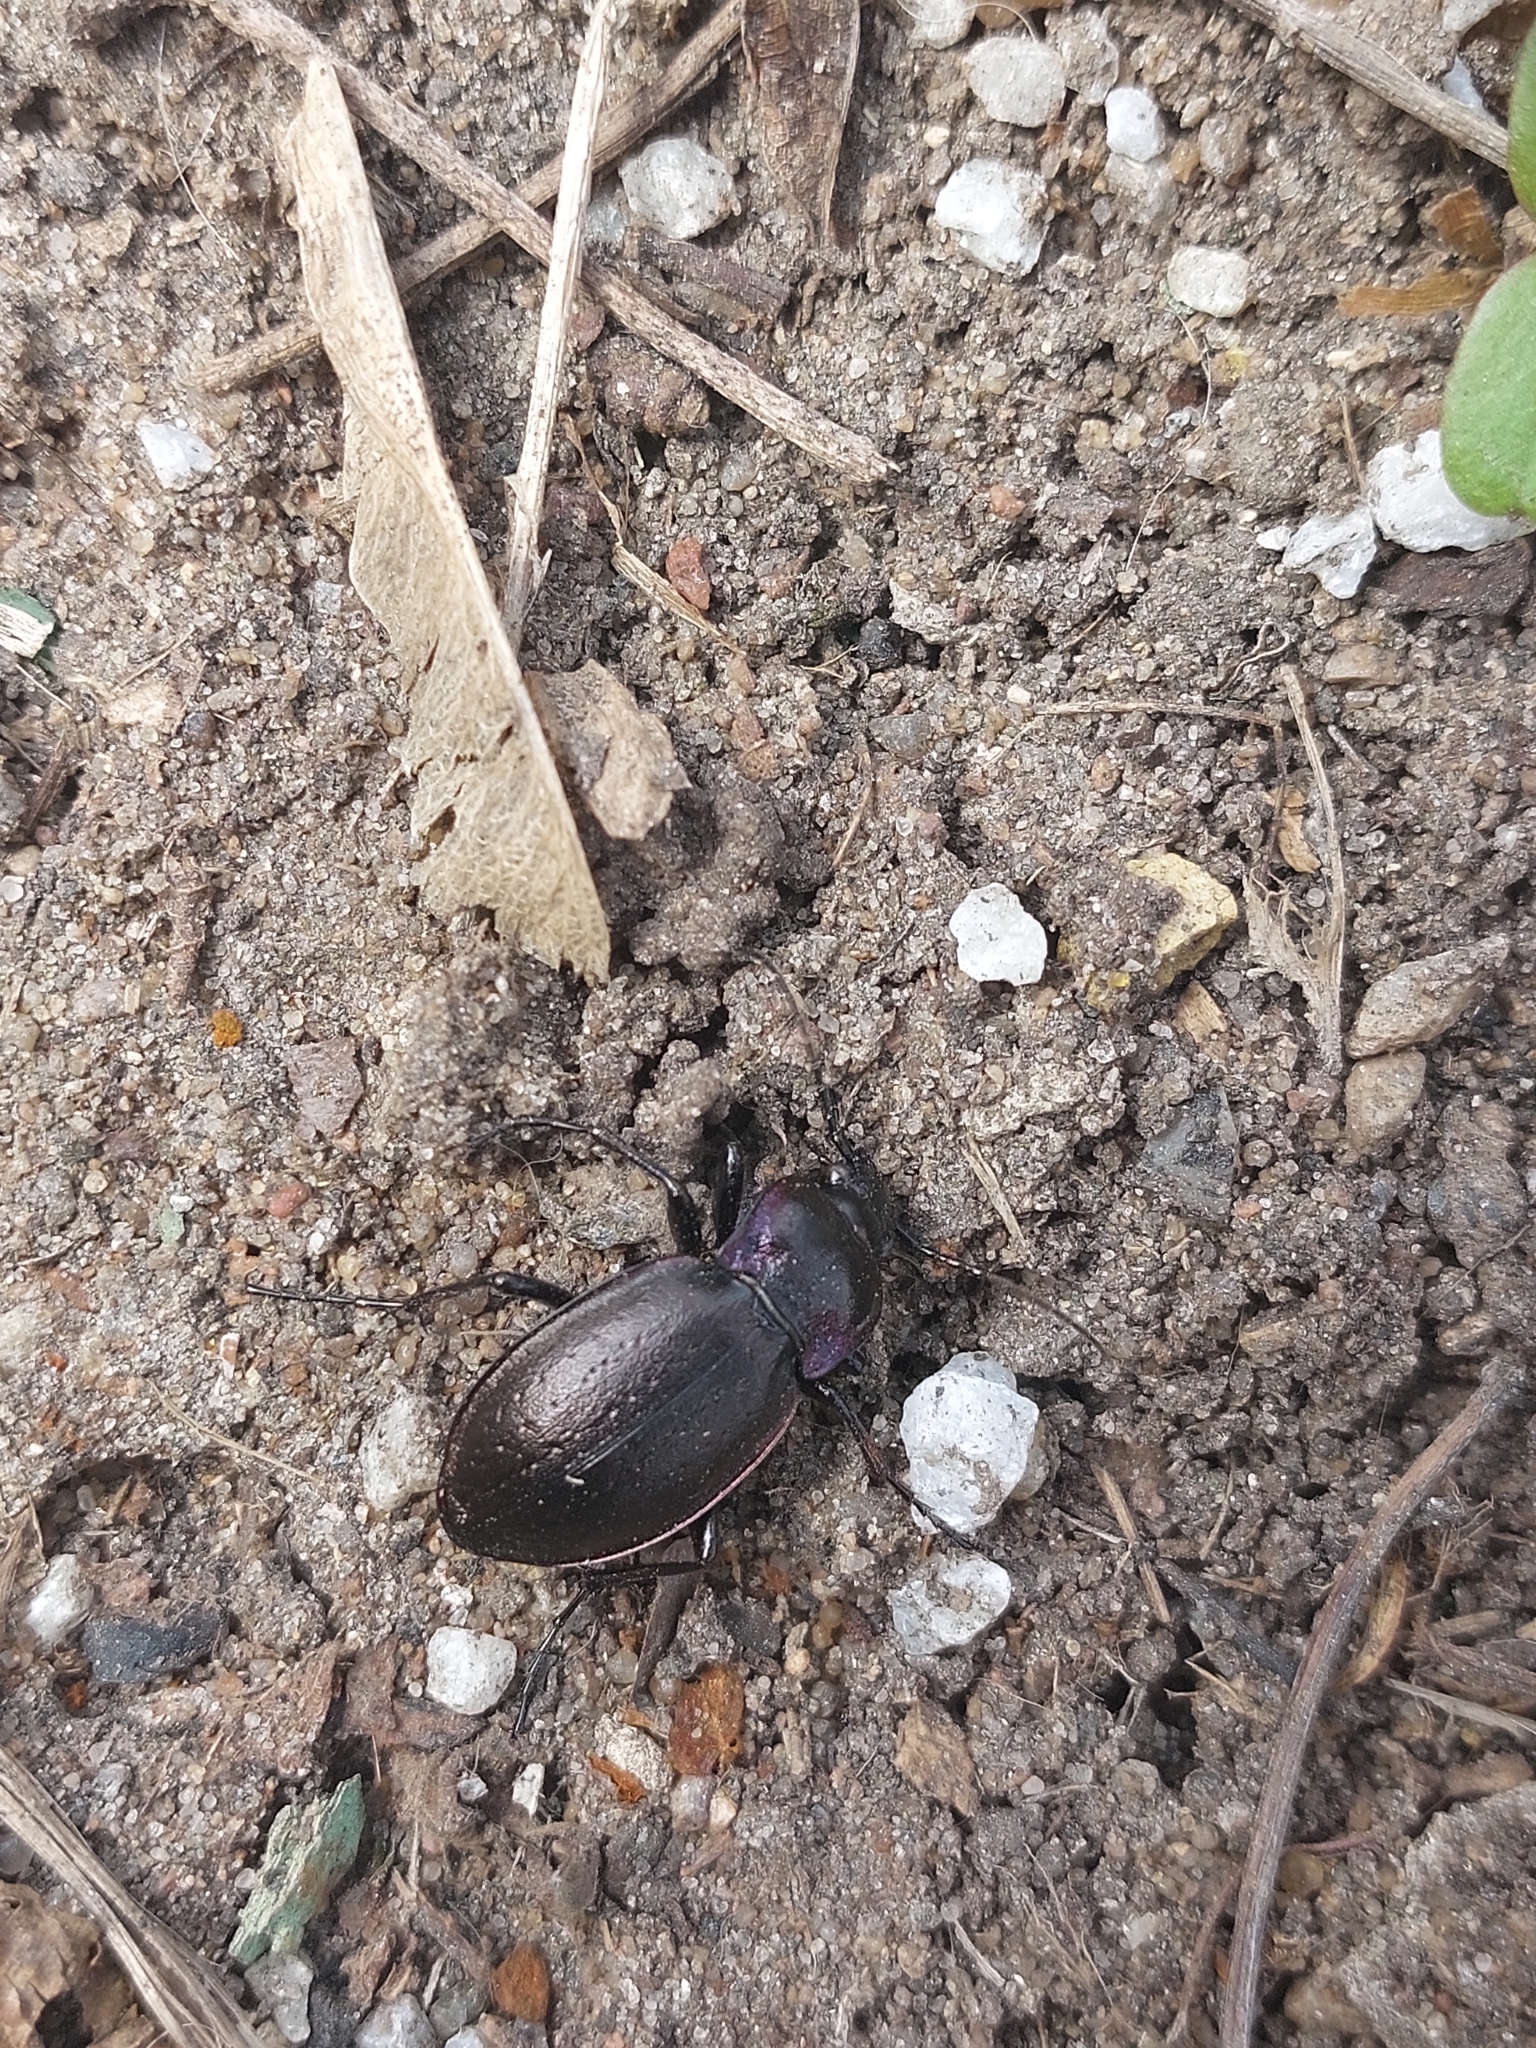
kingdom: Animalia
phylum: Arthropoda
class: Insecta
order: Coleoptera
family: Carabidae
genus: Carabus
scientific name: Carabus nemoralis
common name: European ground beetle
